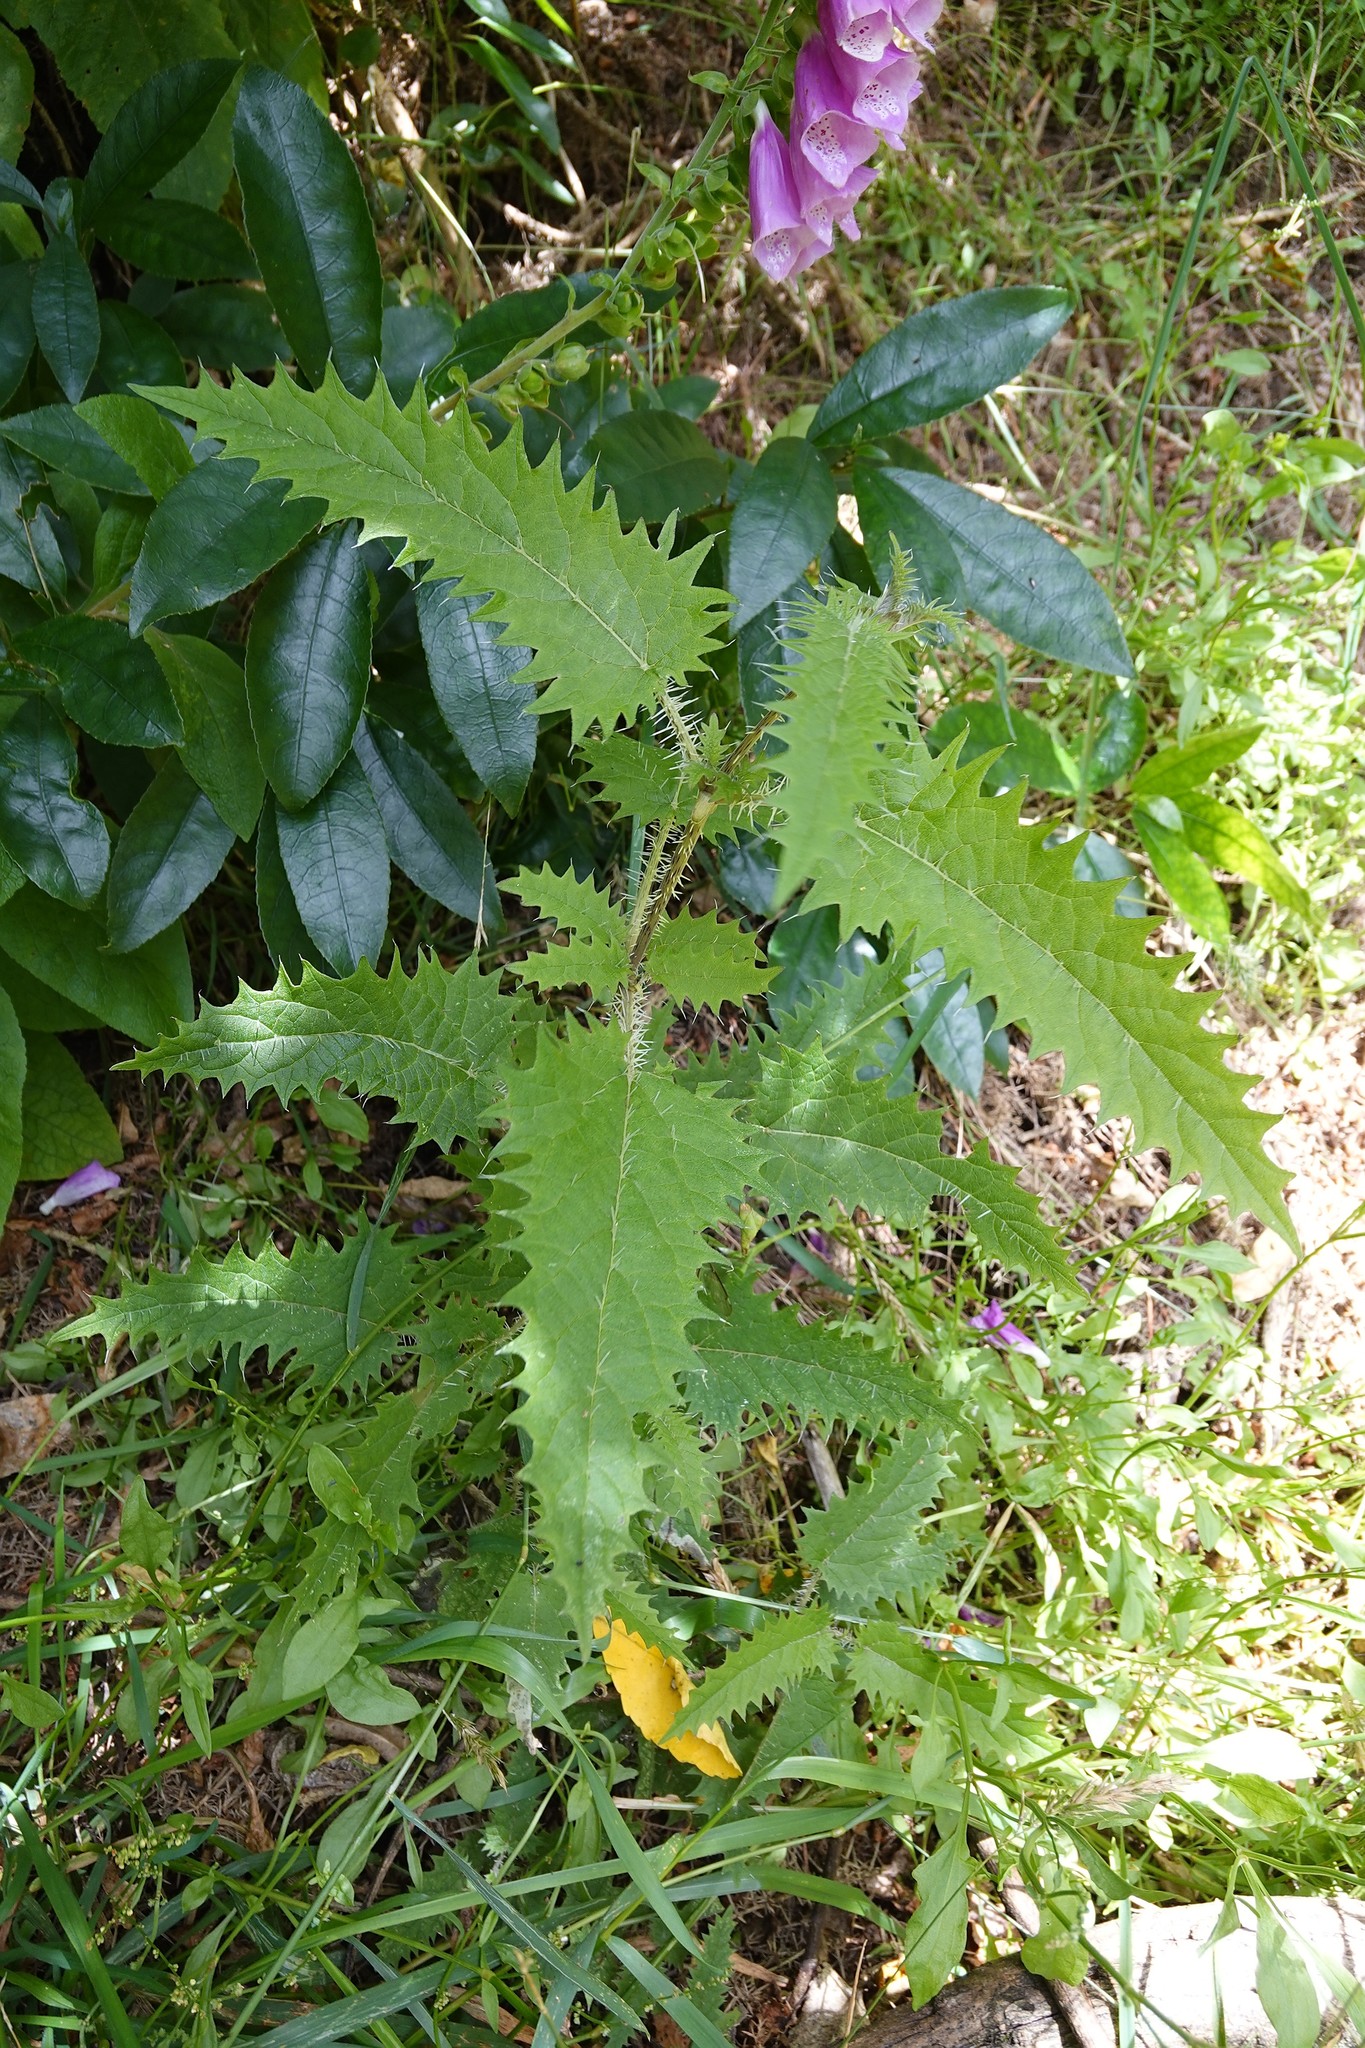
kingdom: Plantae
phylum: Tracheophyta
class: Magnoliopsida
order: Rosales
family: Urticaceae
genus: Urtica
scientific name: Urtica ferox
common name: Tree nettle
